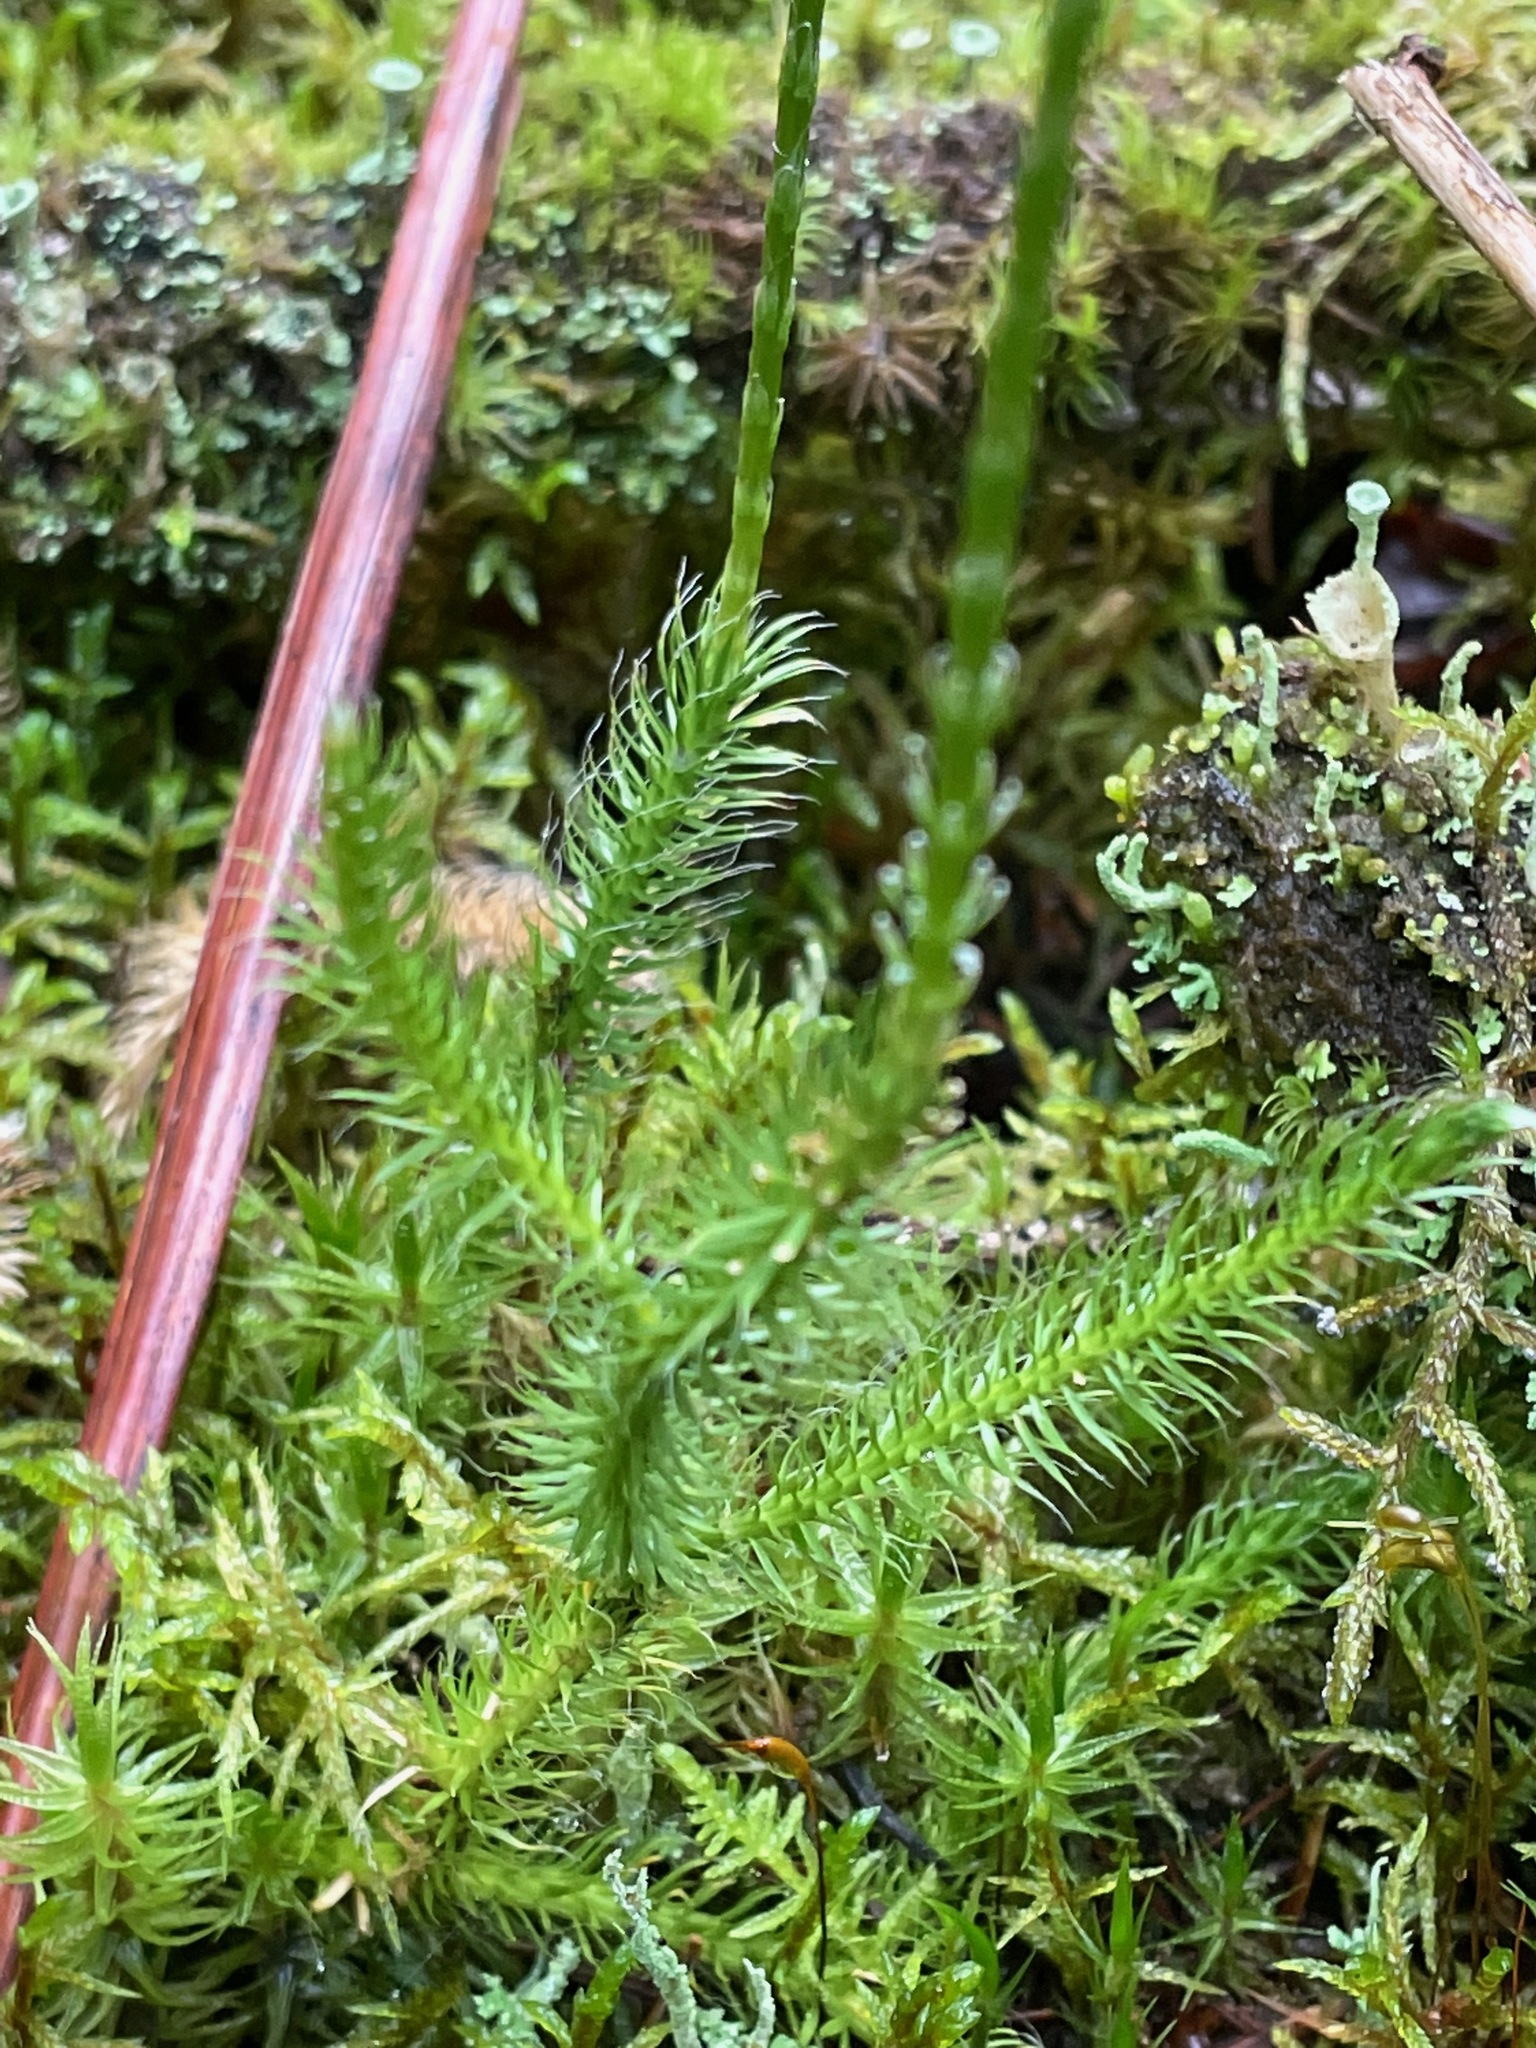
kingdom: Plantae
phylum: Tracheophyta
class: Lycopodiopsida
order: Lycopodiales
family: Lycopodiaceae
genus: Lycopodium
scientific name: Lycopodium clavatum
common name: Stag's-horn clubmoss
